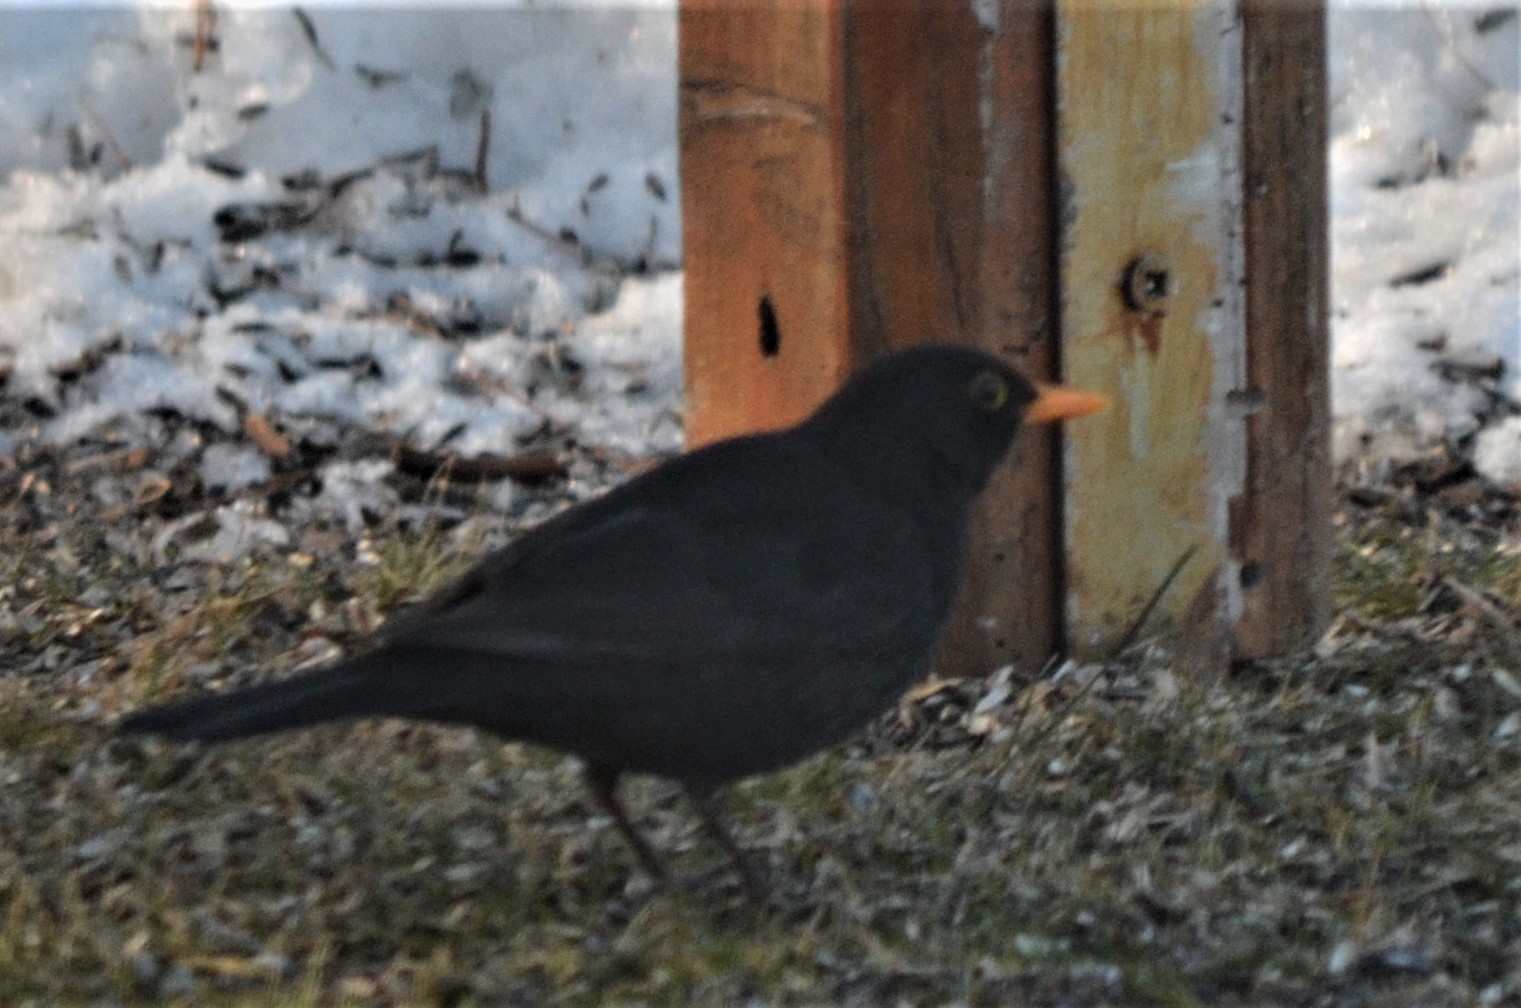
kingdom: Animalia
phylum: Chordata
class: Aves
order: Passeriformes
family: Turdidae
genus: Turdus
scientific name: Turdus merula
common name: Common blackbird
